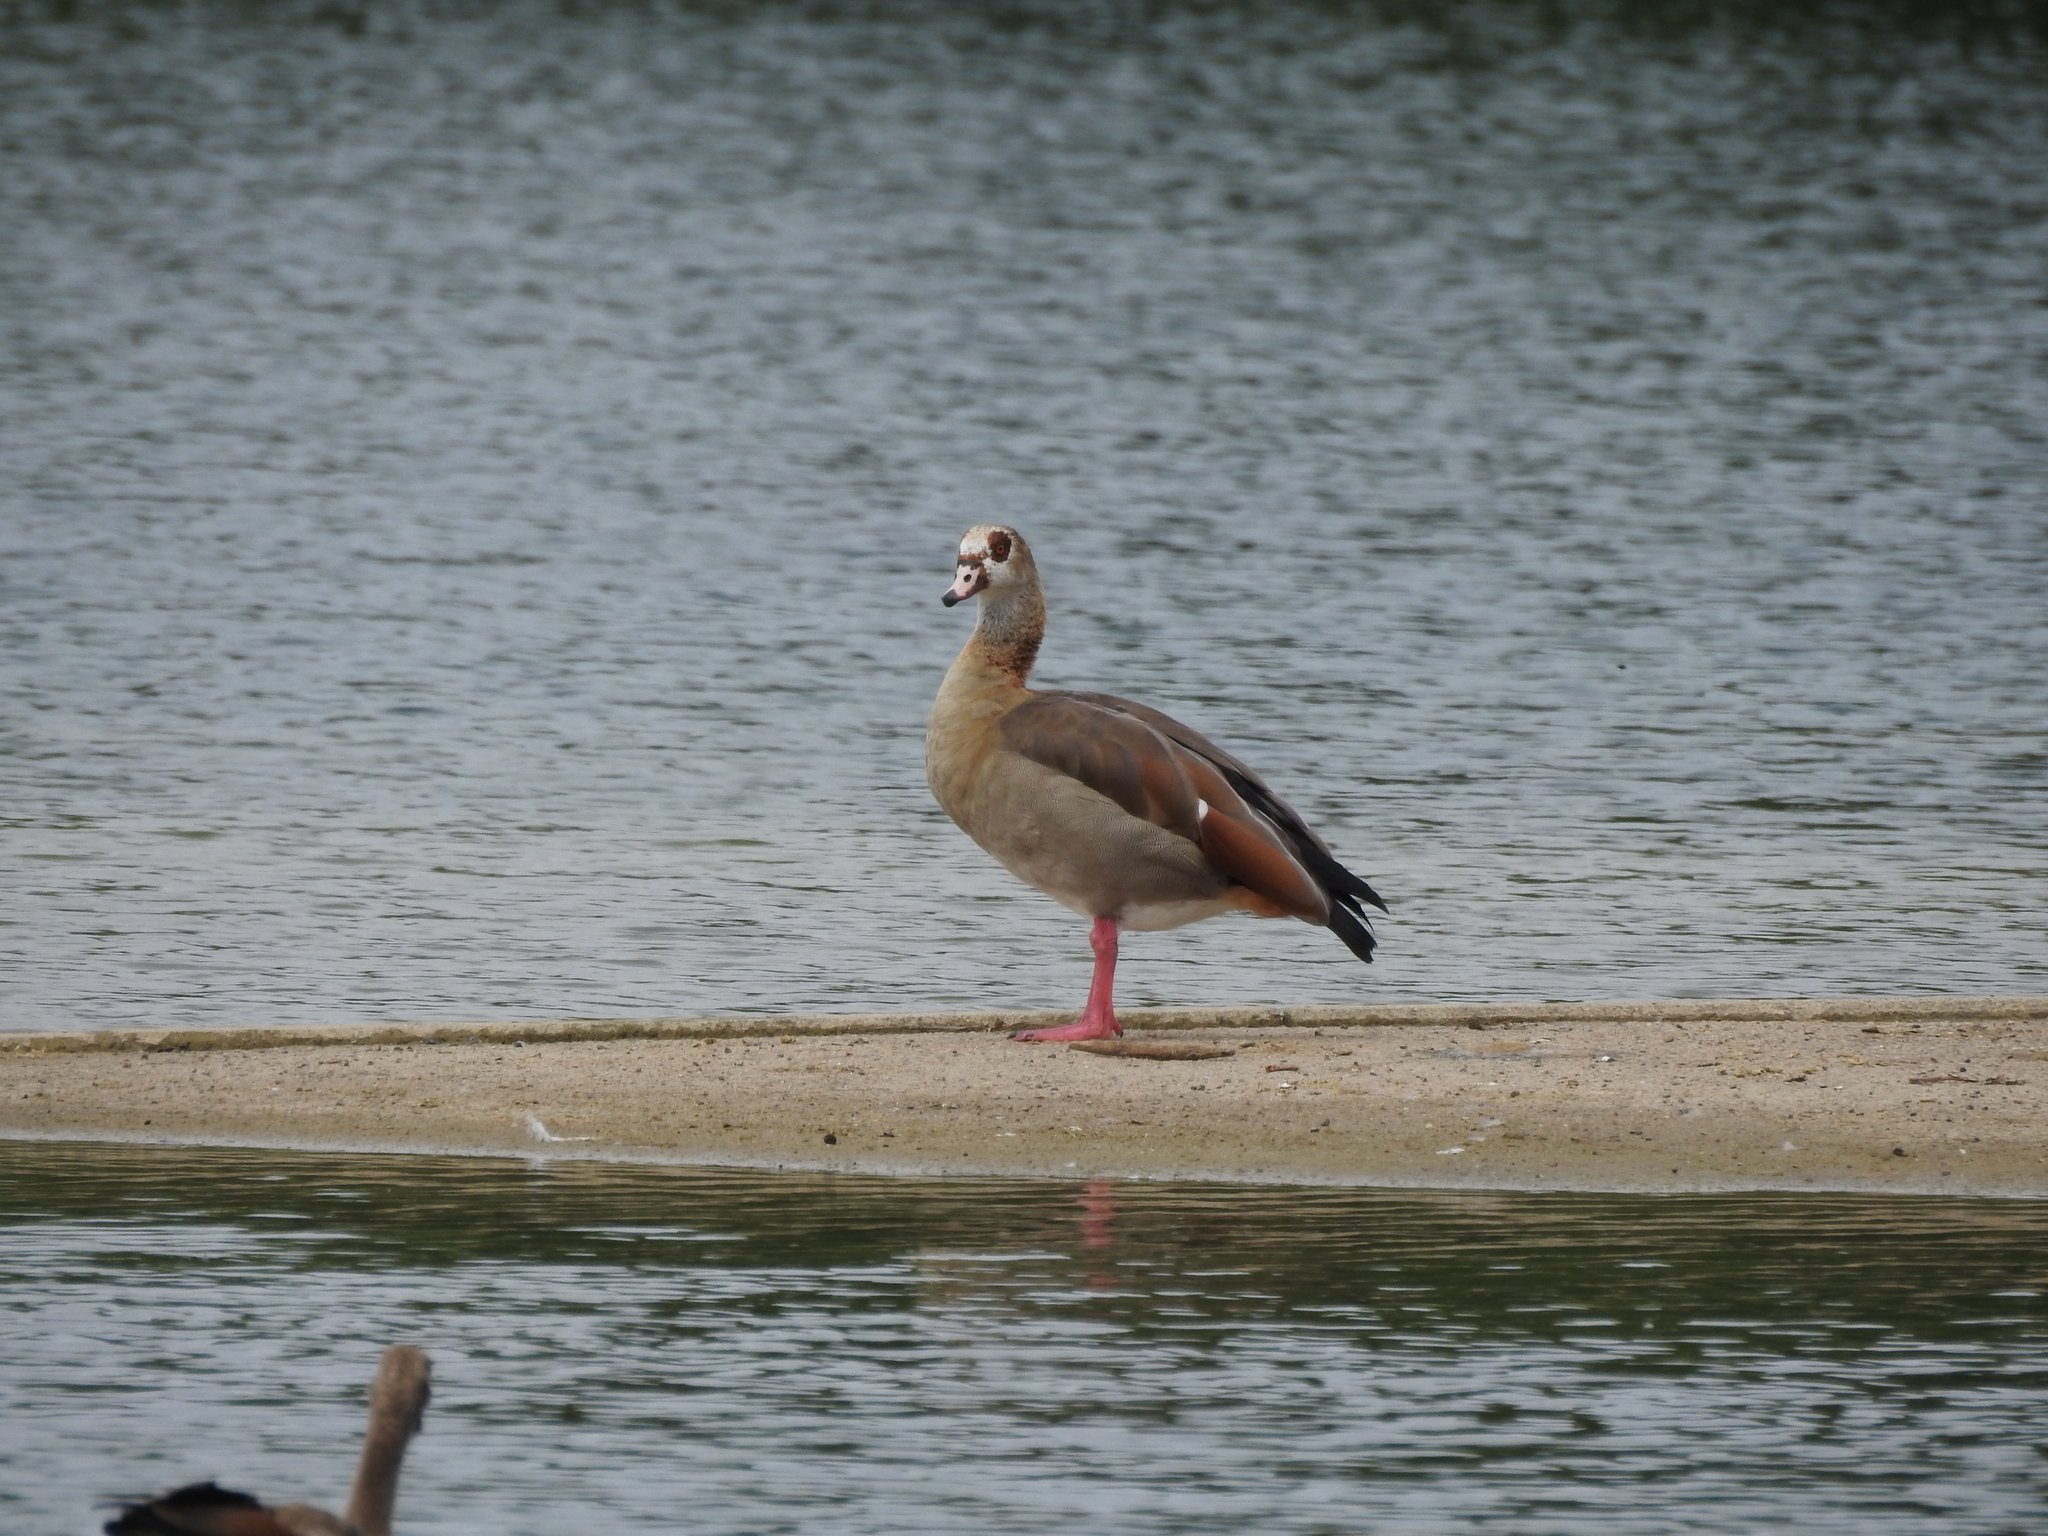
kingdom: Animalia
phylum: Chordata
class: Aves
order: Anseriformes
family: Anatidae
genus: Alopochen
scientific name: Alopochen aegyptiaca
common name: Egyptian goose
